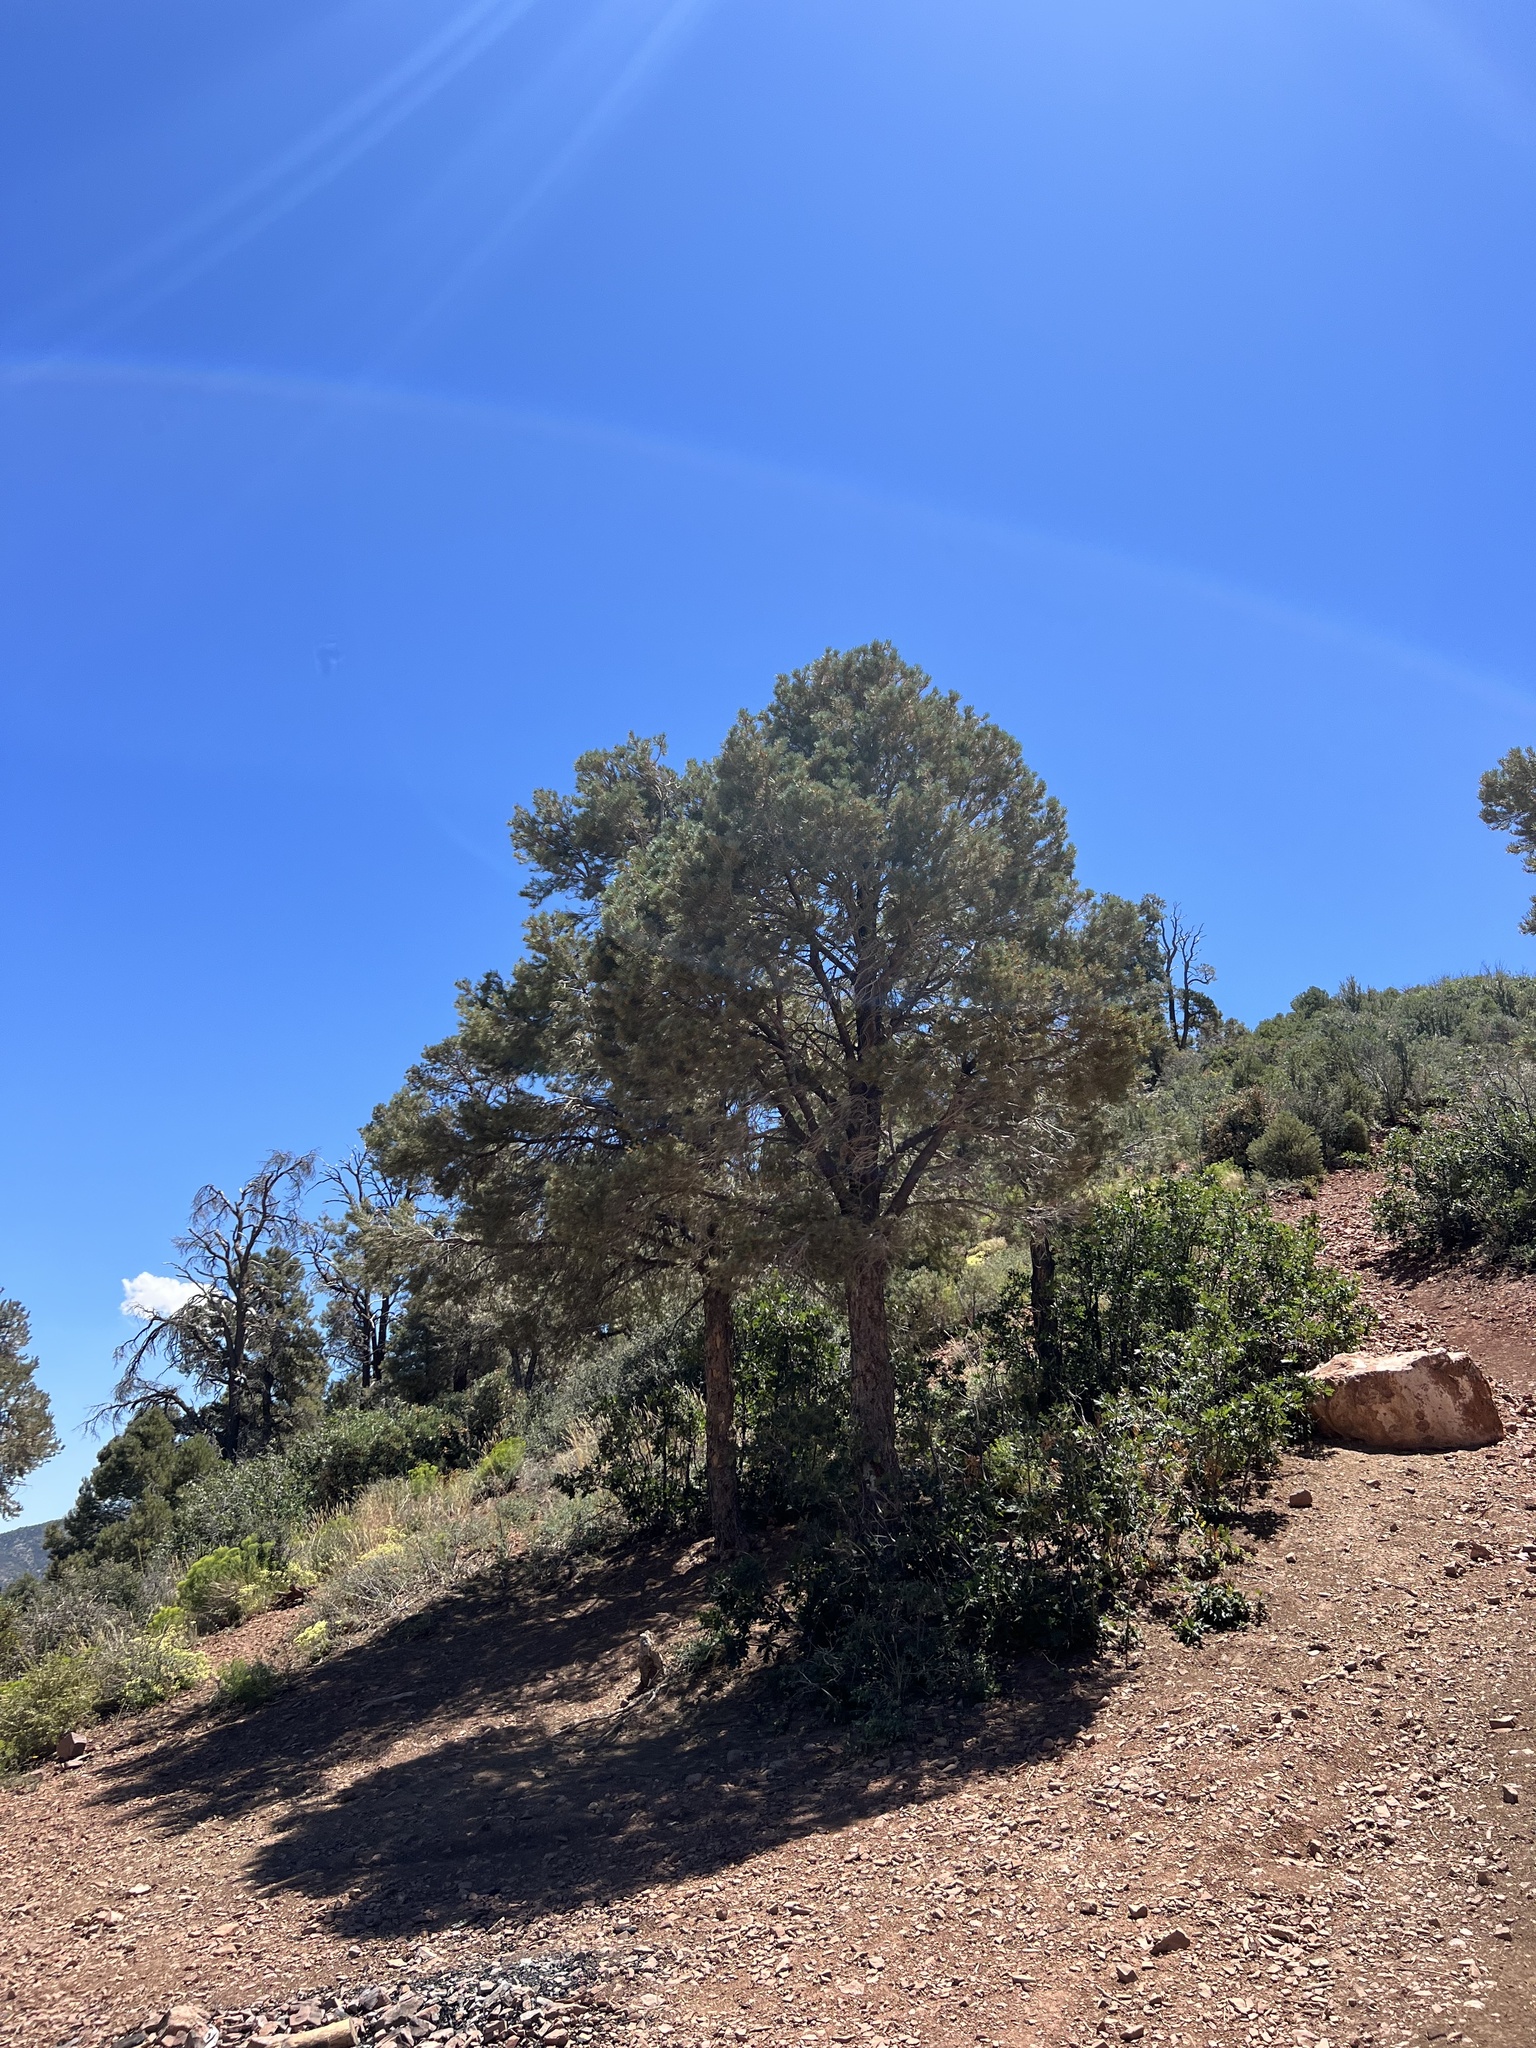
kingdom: Plantae
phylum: Tracheophyta
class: Pinopsida
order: Pinales
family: Pinaceae
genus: Pinus
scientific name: Pinus monophylla
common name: One-leaved nut pine
